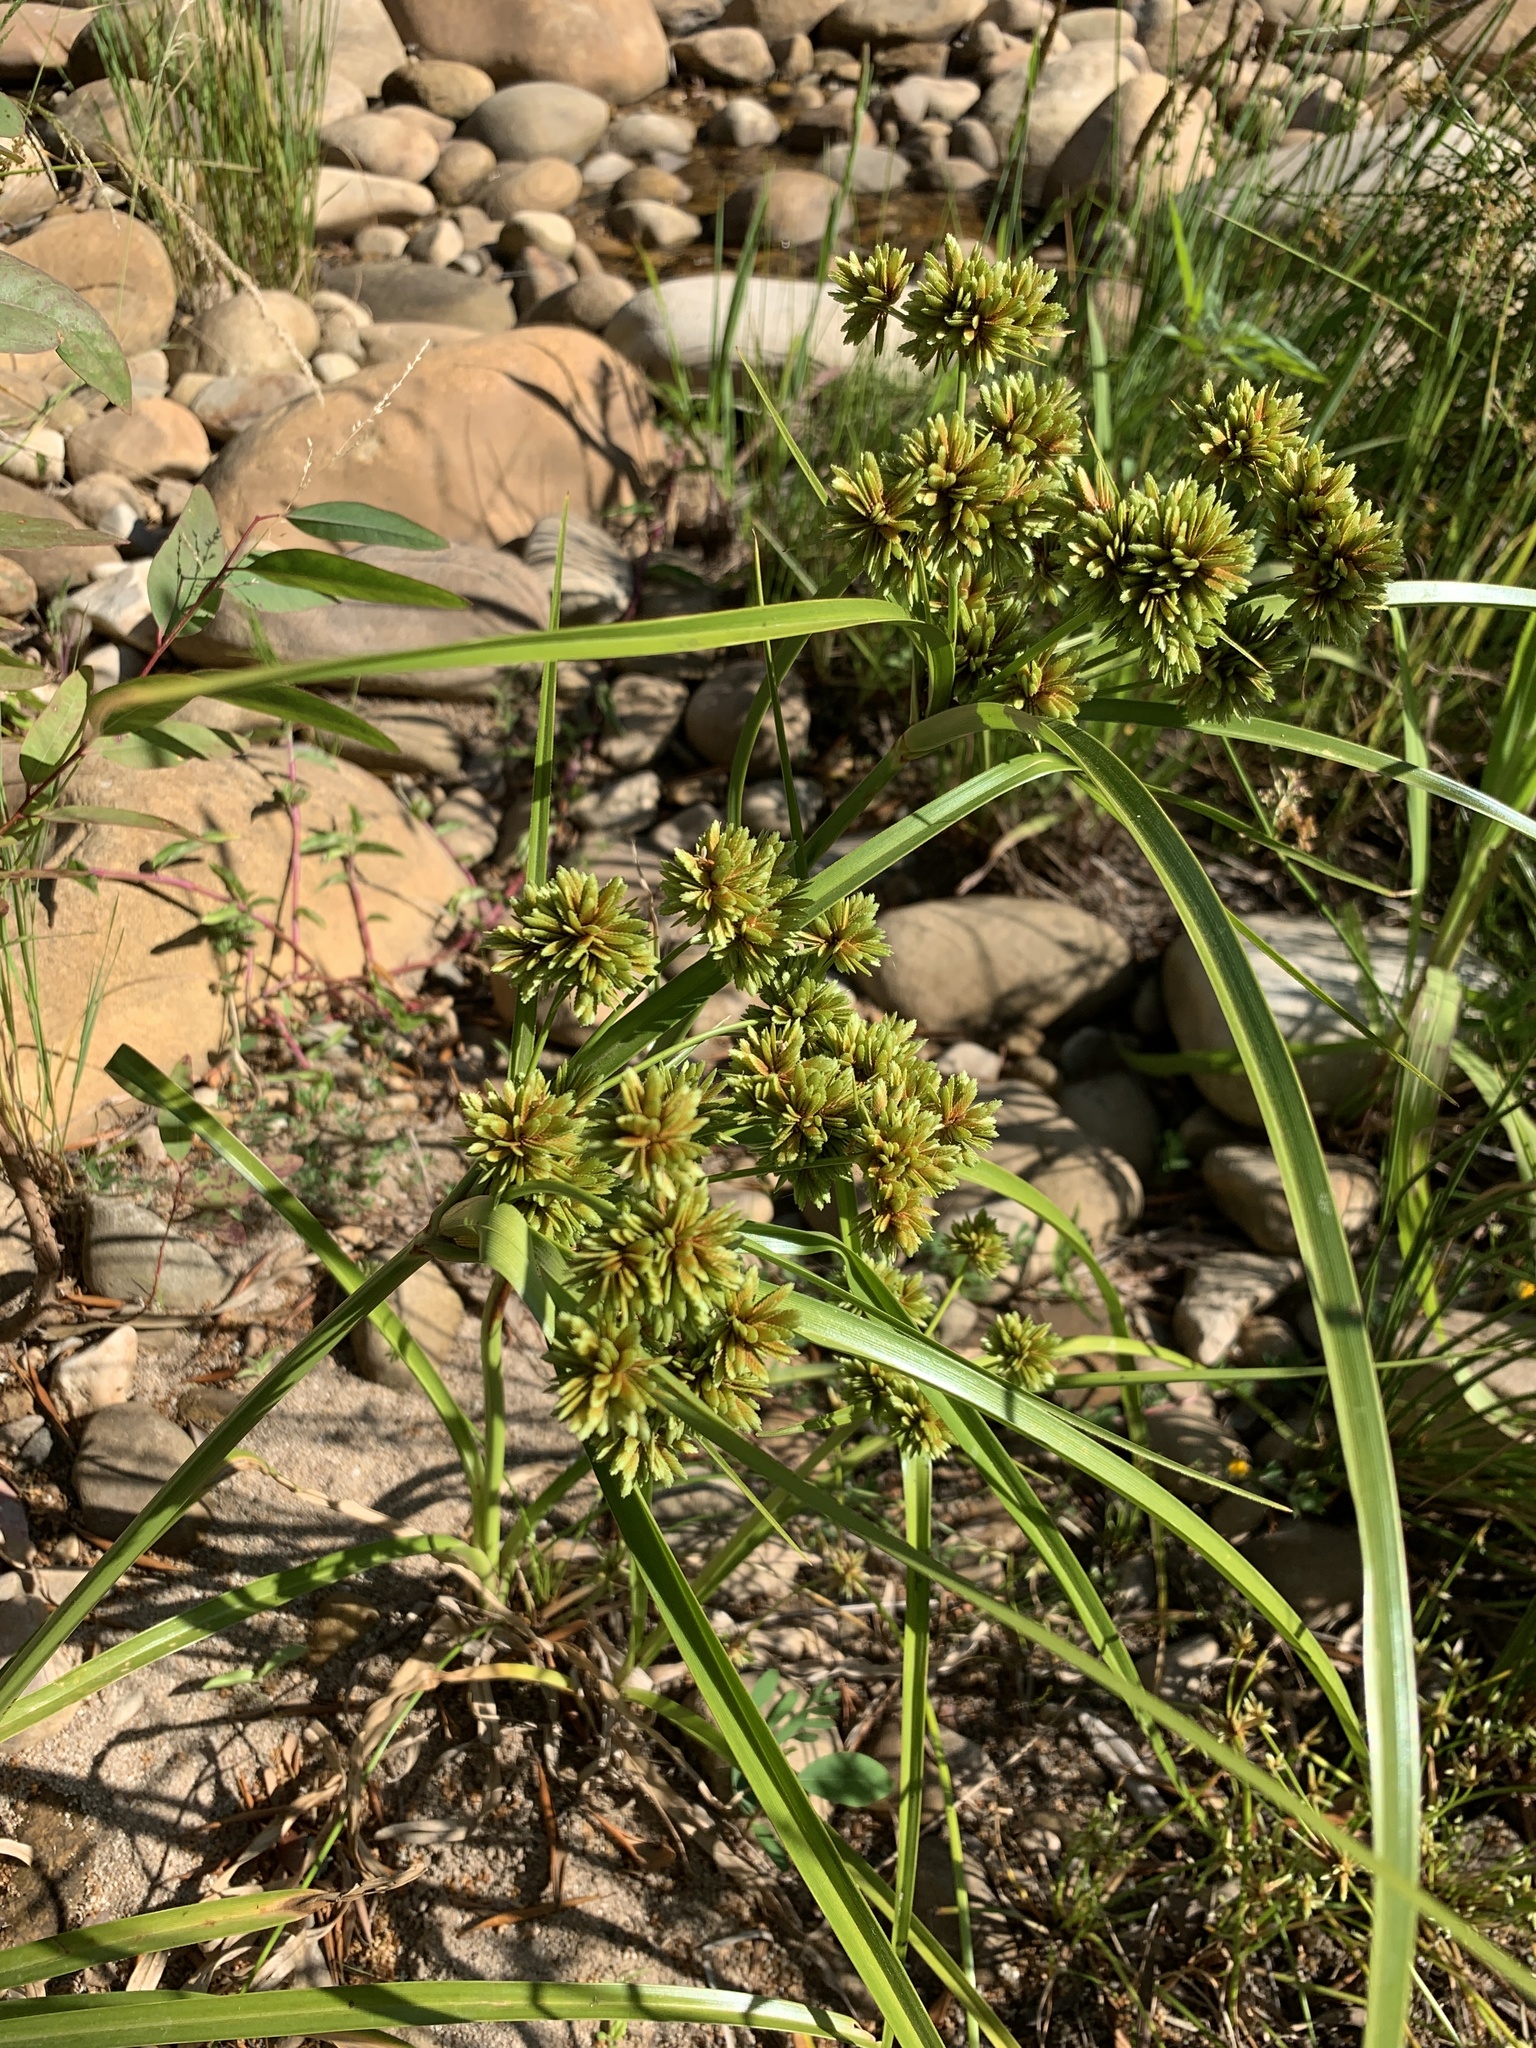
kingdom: Plantae
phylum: Tracheophyta
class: Liliopsida
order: Poales
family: Cyperaceae
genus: Cyperus
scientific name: Cyperus eragrostis
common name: Tall flatsedge
